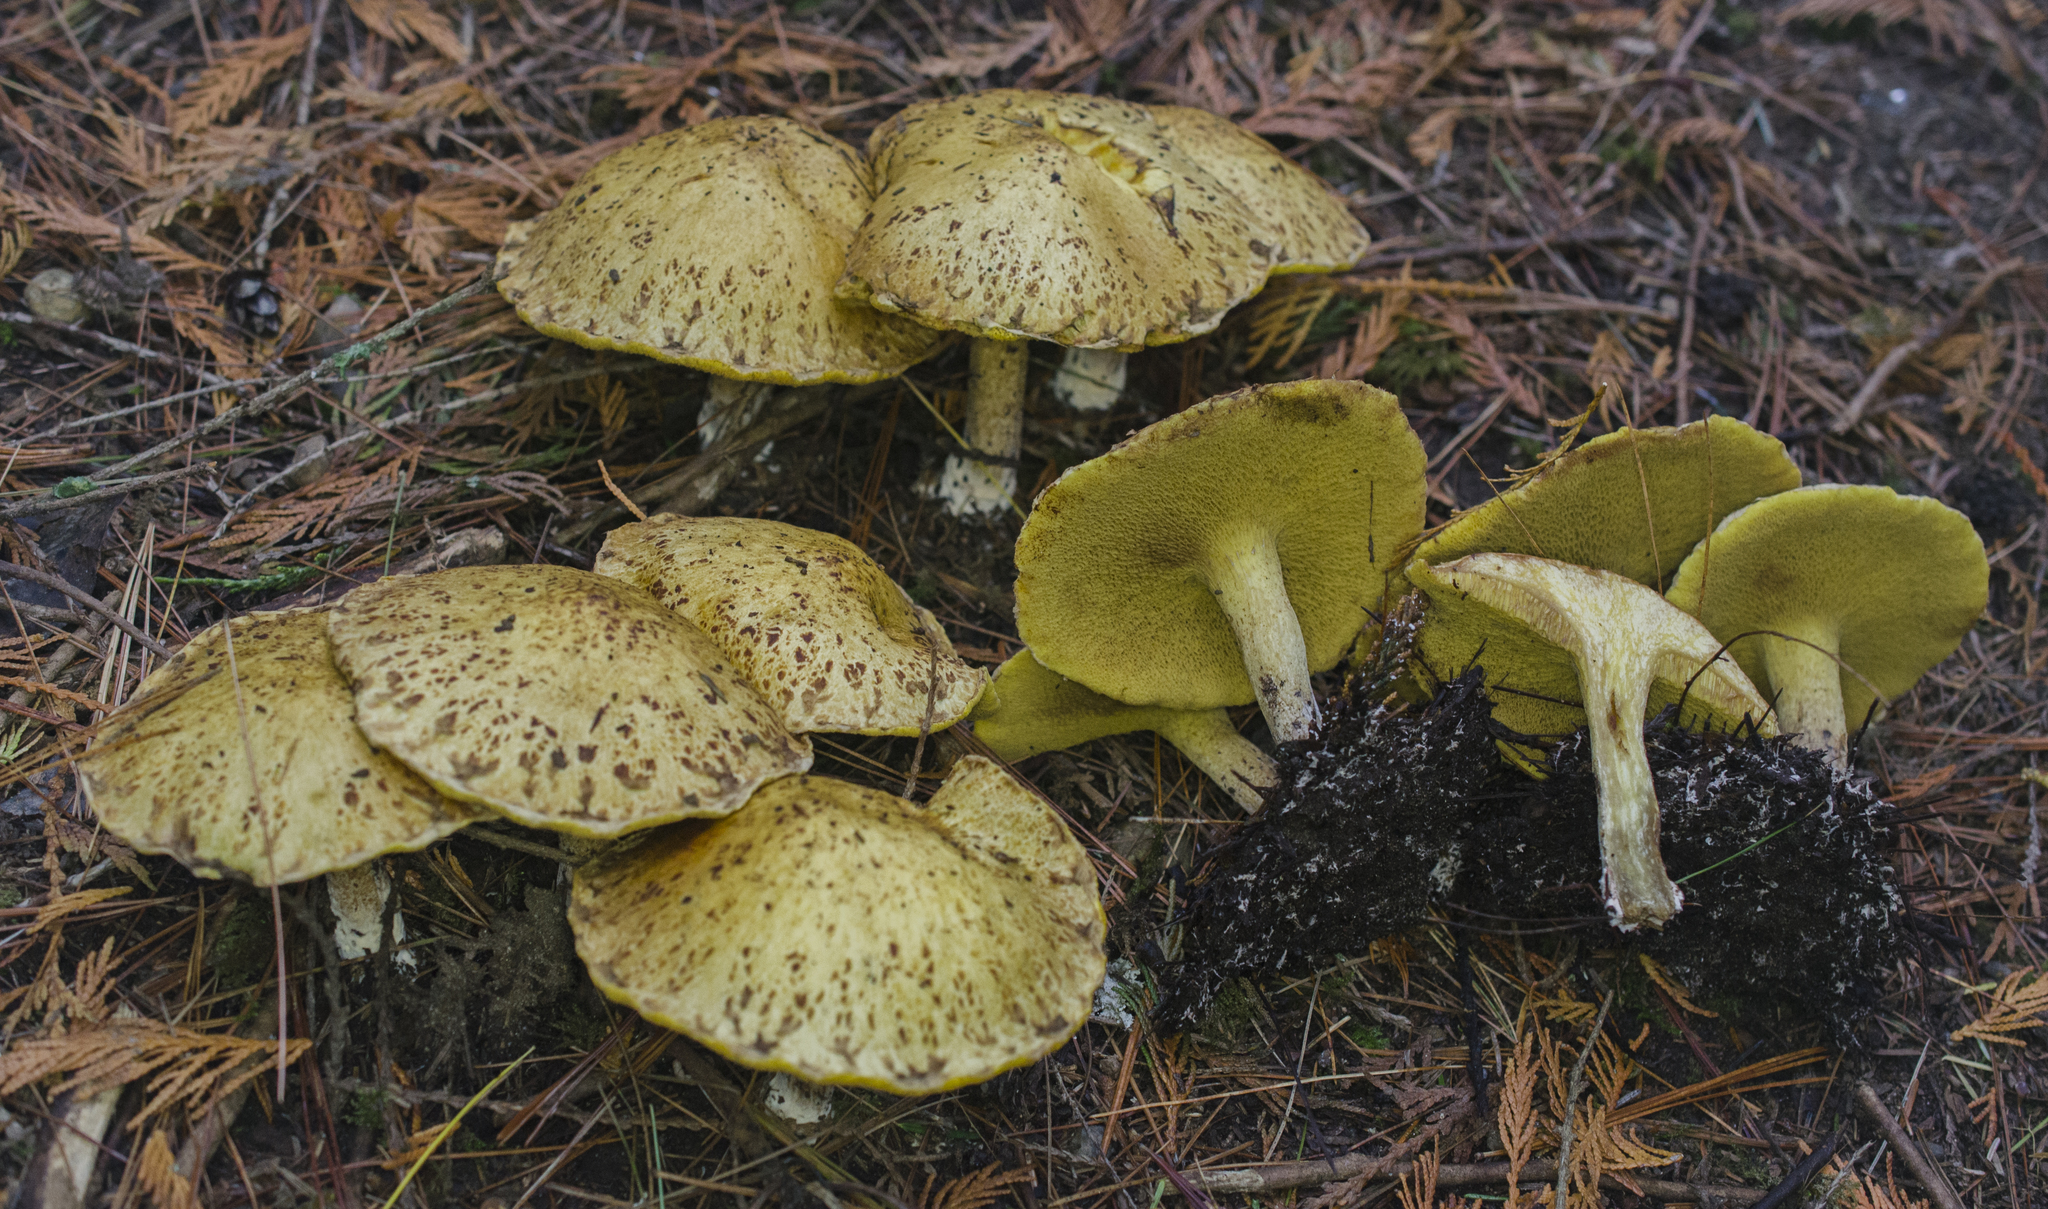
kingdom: Fungi
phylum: Basidiomycota
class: Agaricomycetes
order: Boletales
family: Suillaceae
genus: Suillus
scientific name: Suillus americanus
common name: Chicken fat mushroom
